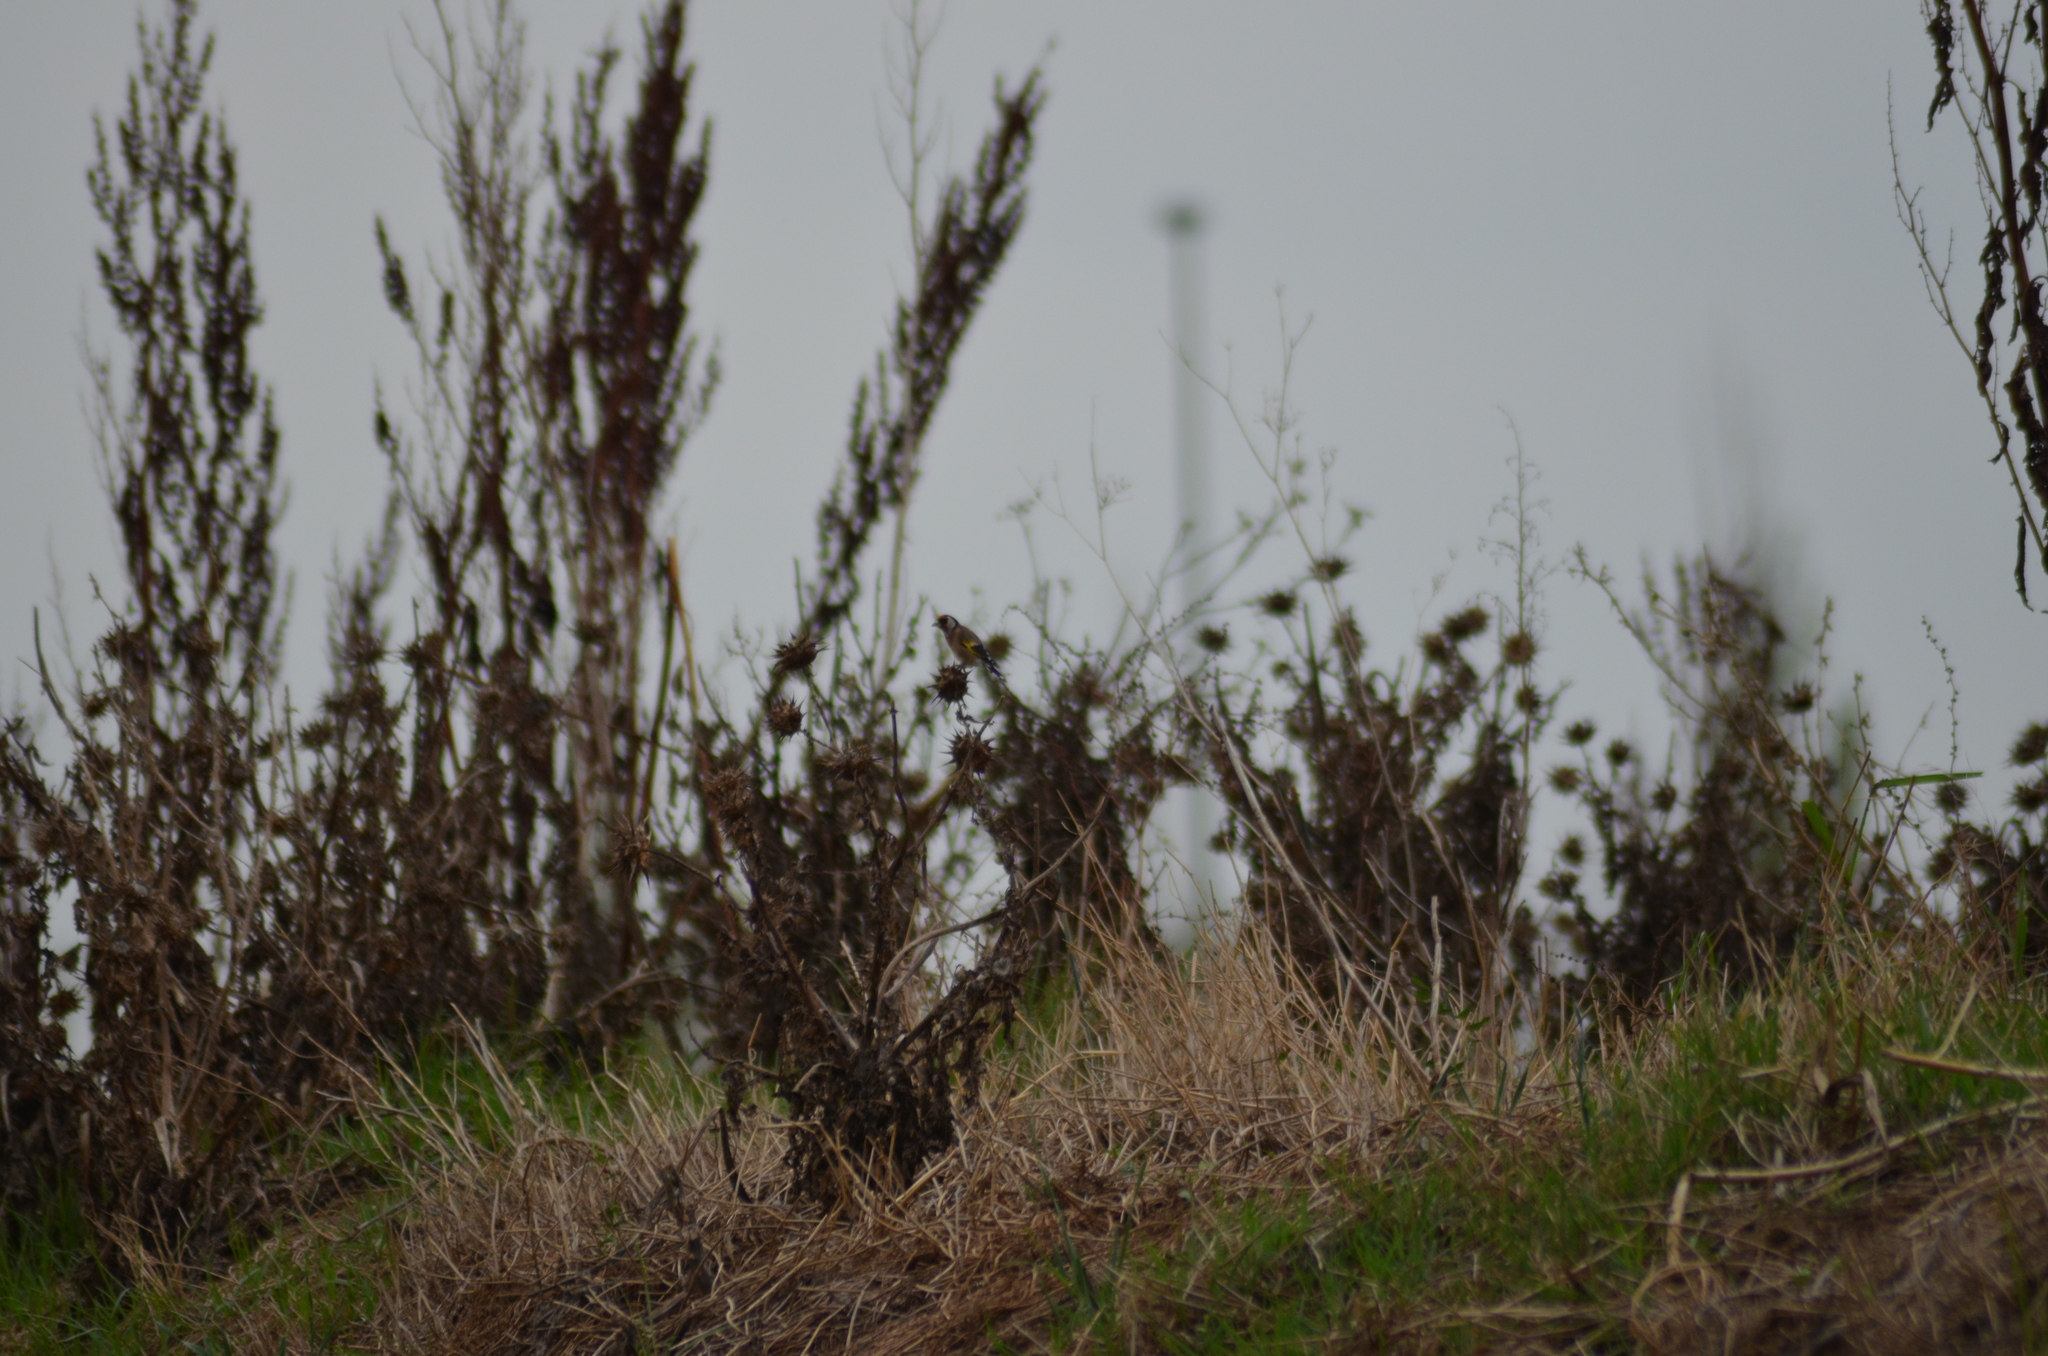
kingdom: Animalia
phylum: Chordata
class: Aves
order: Passeriformes
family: Fringillidae
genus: Carduelis
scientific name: Carduelis carduelis
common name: European goldfinch
